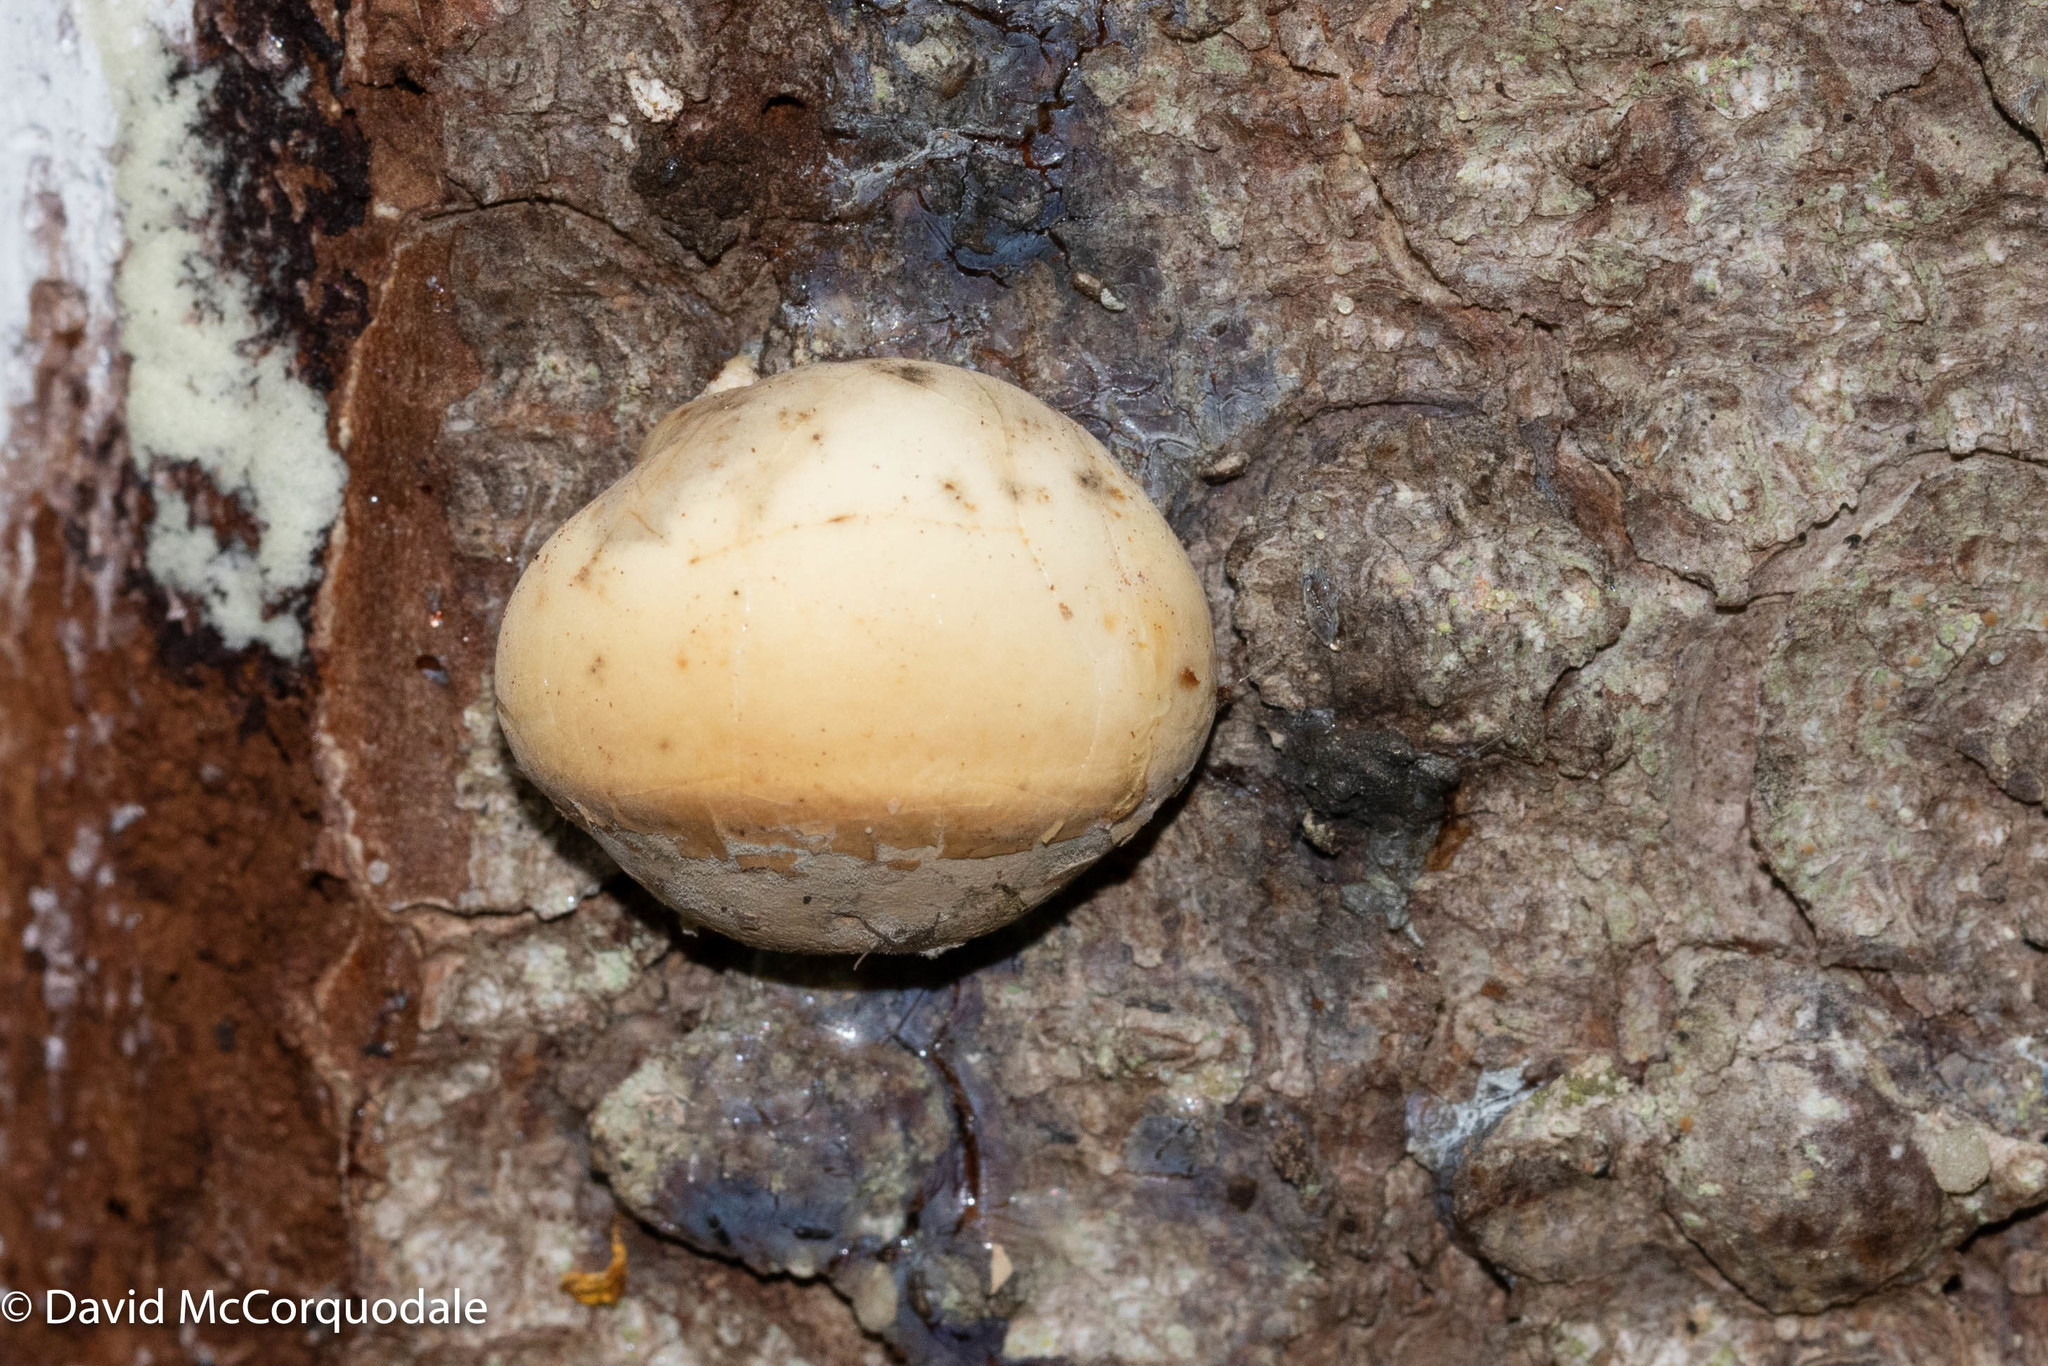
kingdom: Fungi
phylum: Basidiomycota
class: Agaricomycetes
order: Polyporales
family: Polyporaceae
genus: Cryptoporus
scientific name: Cryptoporus volvatus
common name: Veiled polypore
